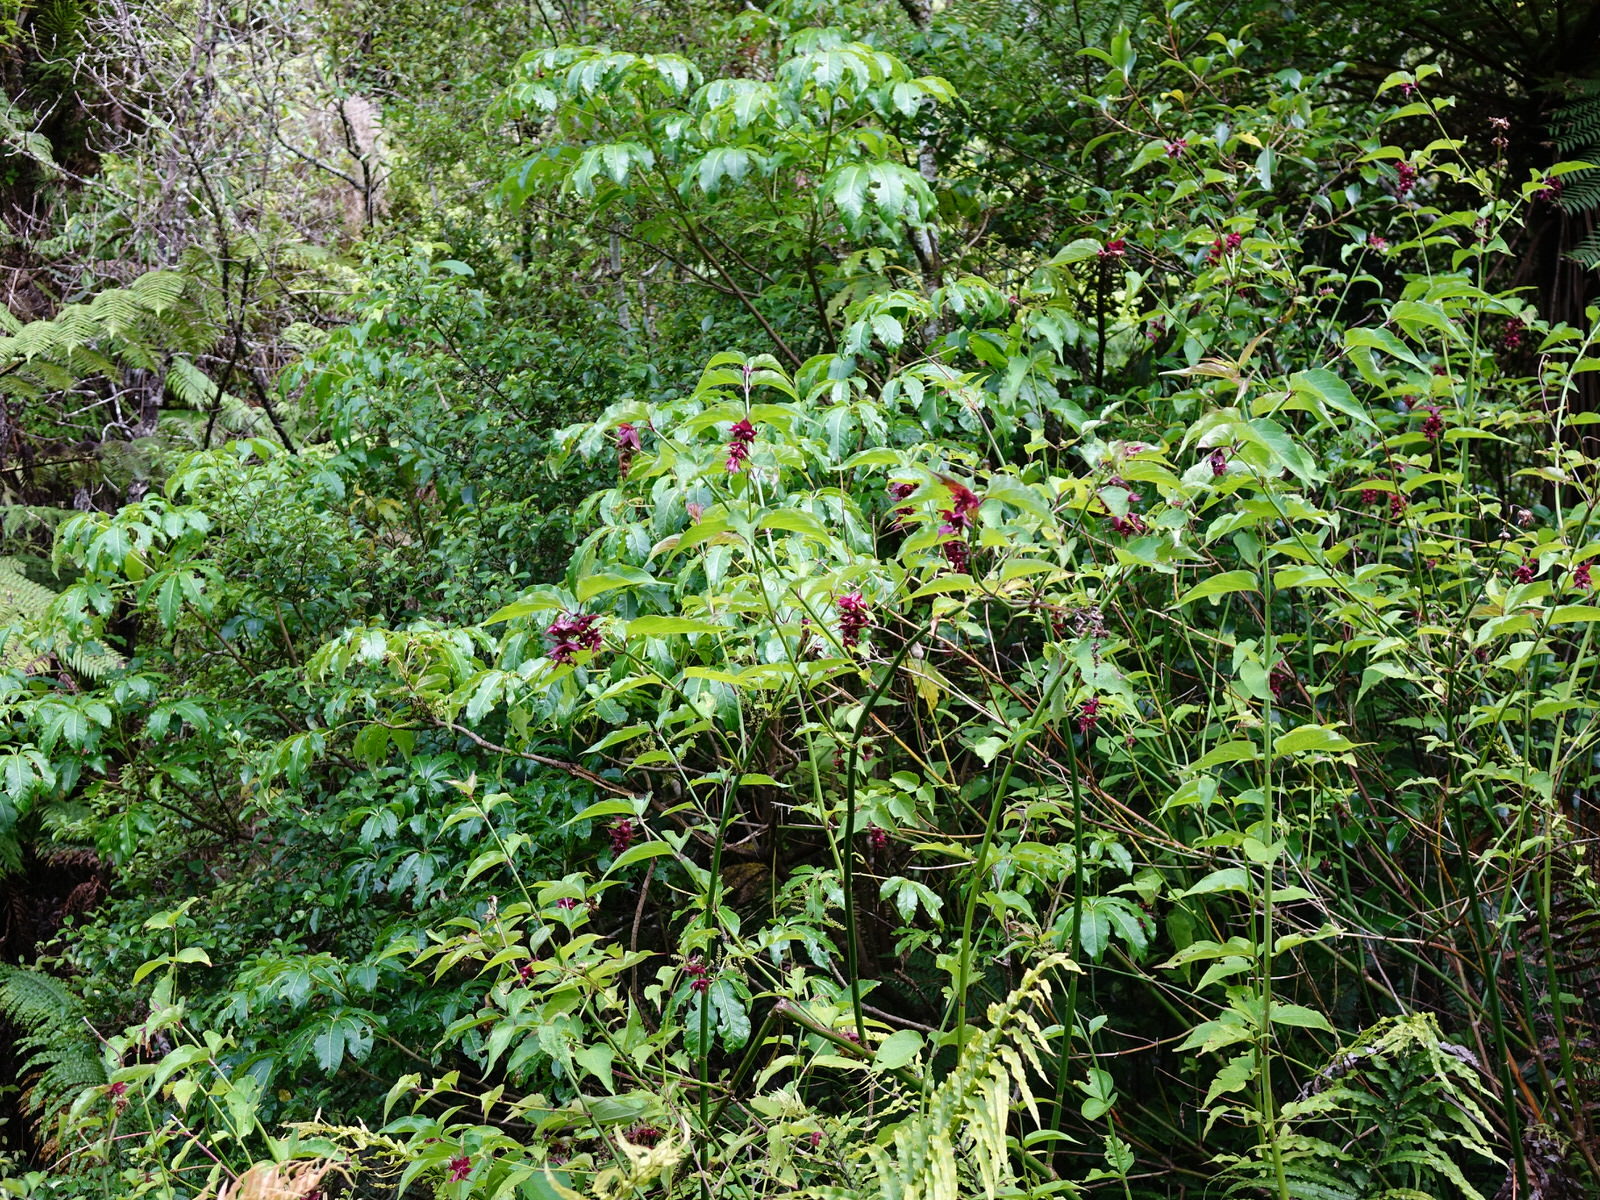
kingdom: Plantae
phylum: Tracheophyta
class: Magnoliopsida
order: Dipsacales
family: Caprifoliaceae
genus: Leycesteria
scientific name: Leycesteria formosa
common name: Himalayan honeysuckle
